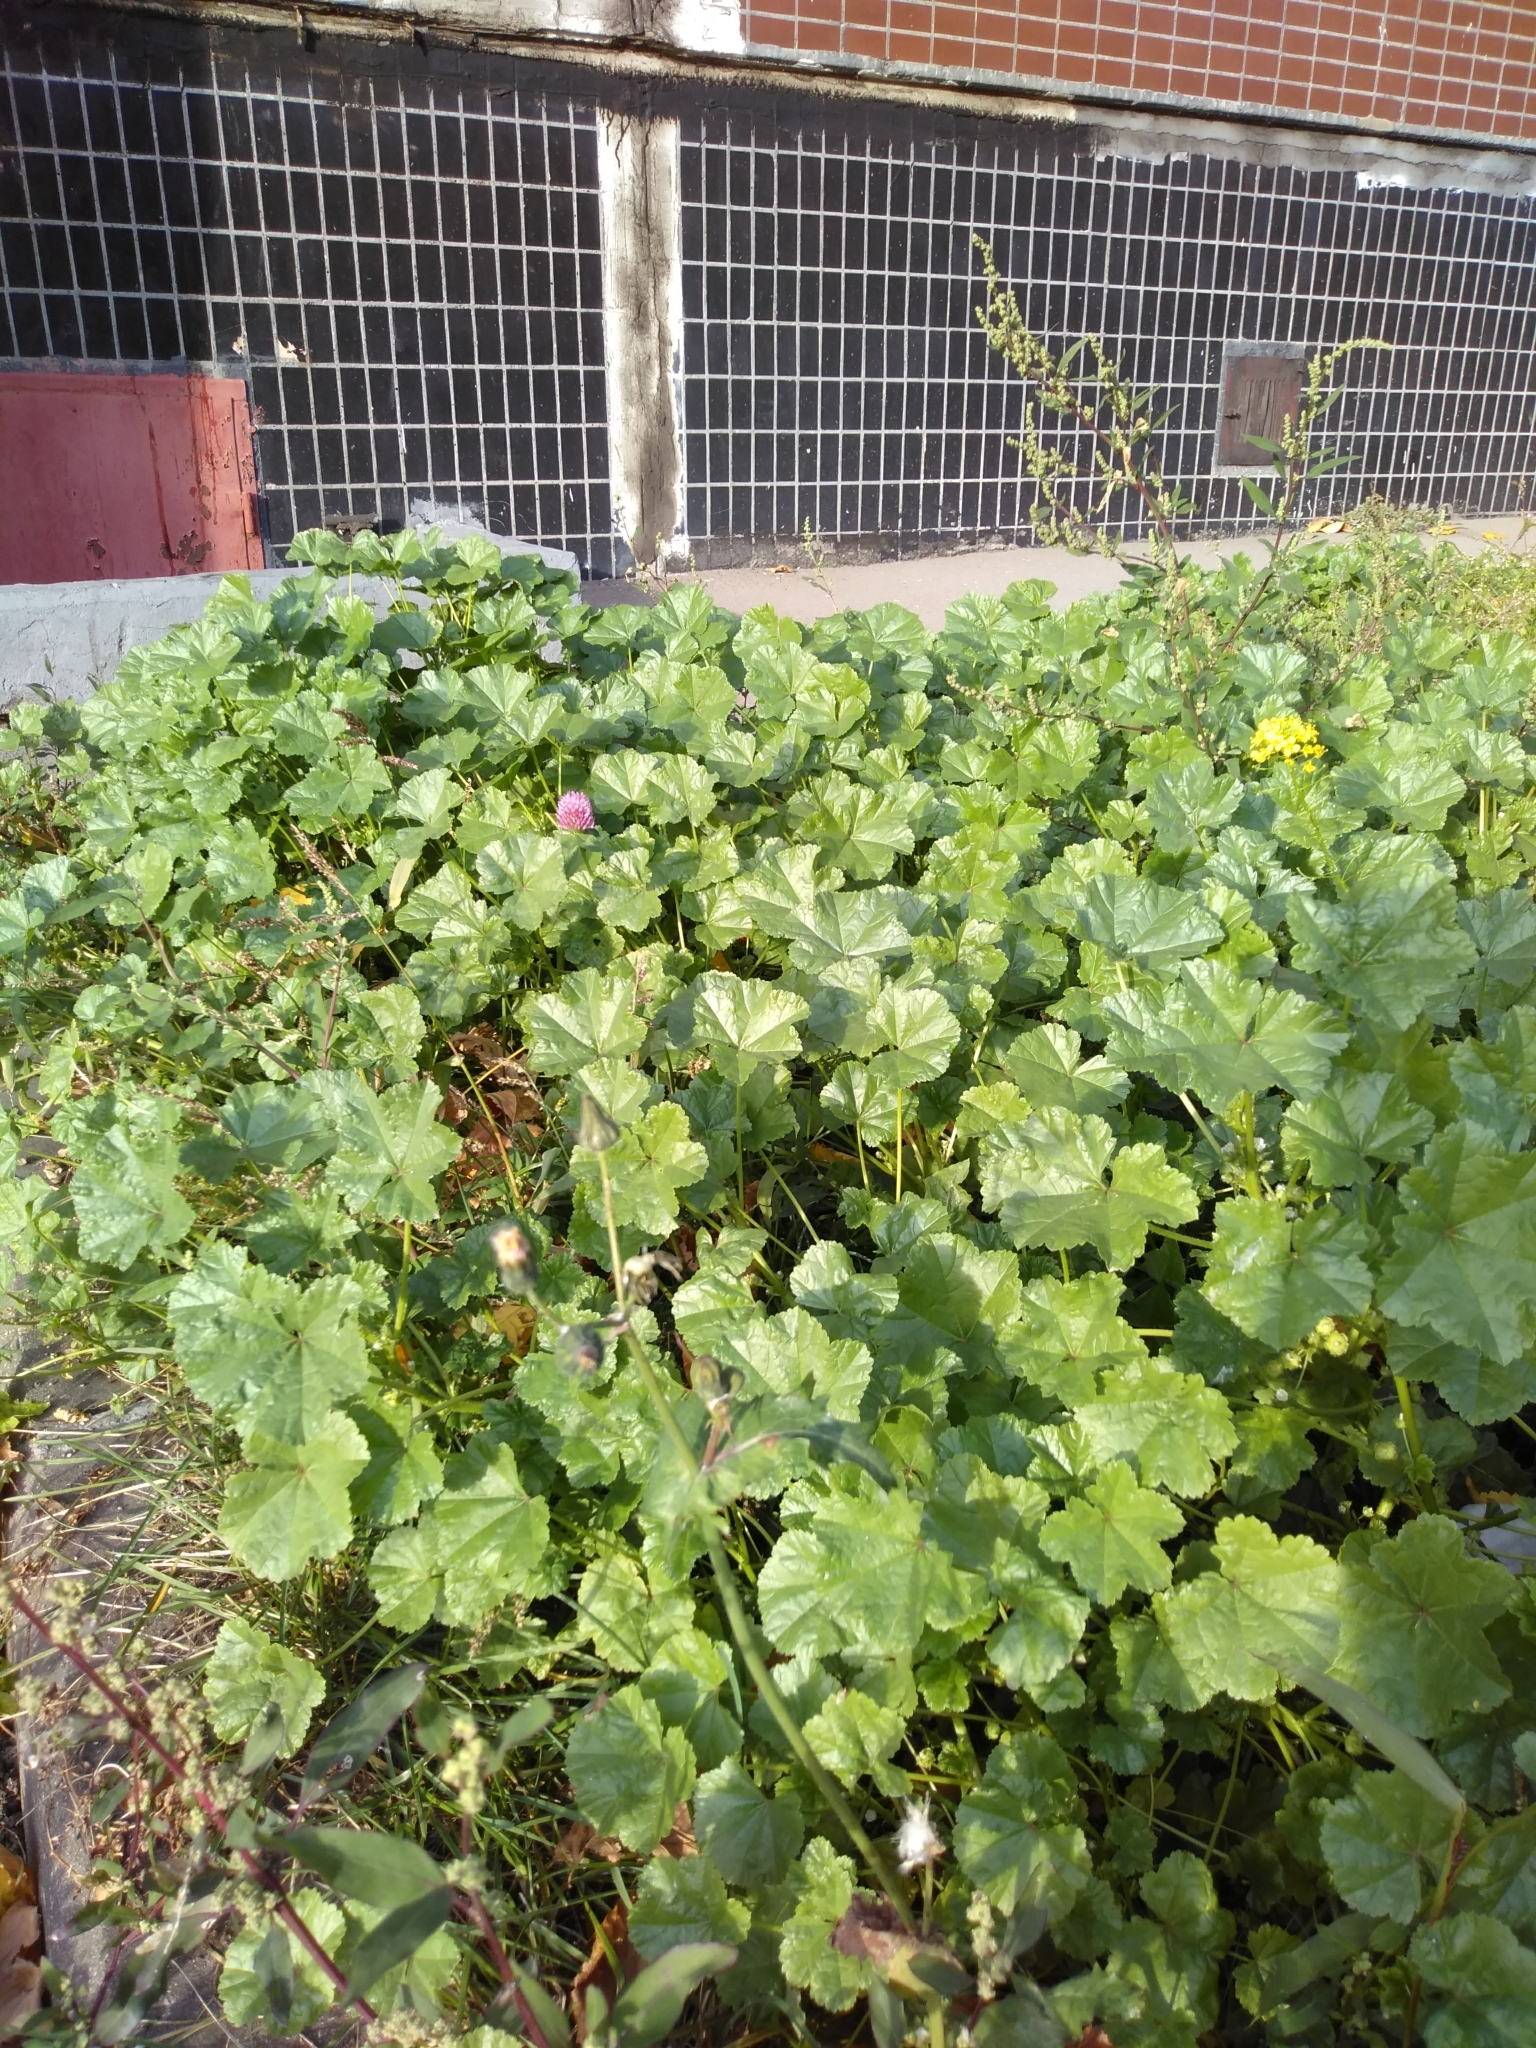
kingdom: Plantae
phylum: Tracheophyta
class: Magnoliopsida
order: Malvales
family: Malvaceae
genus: Malva
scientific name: Malva pusilla
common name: Small mallow
